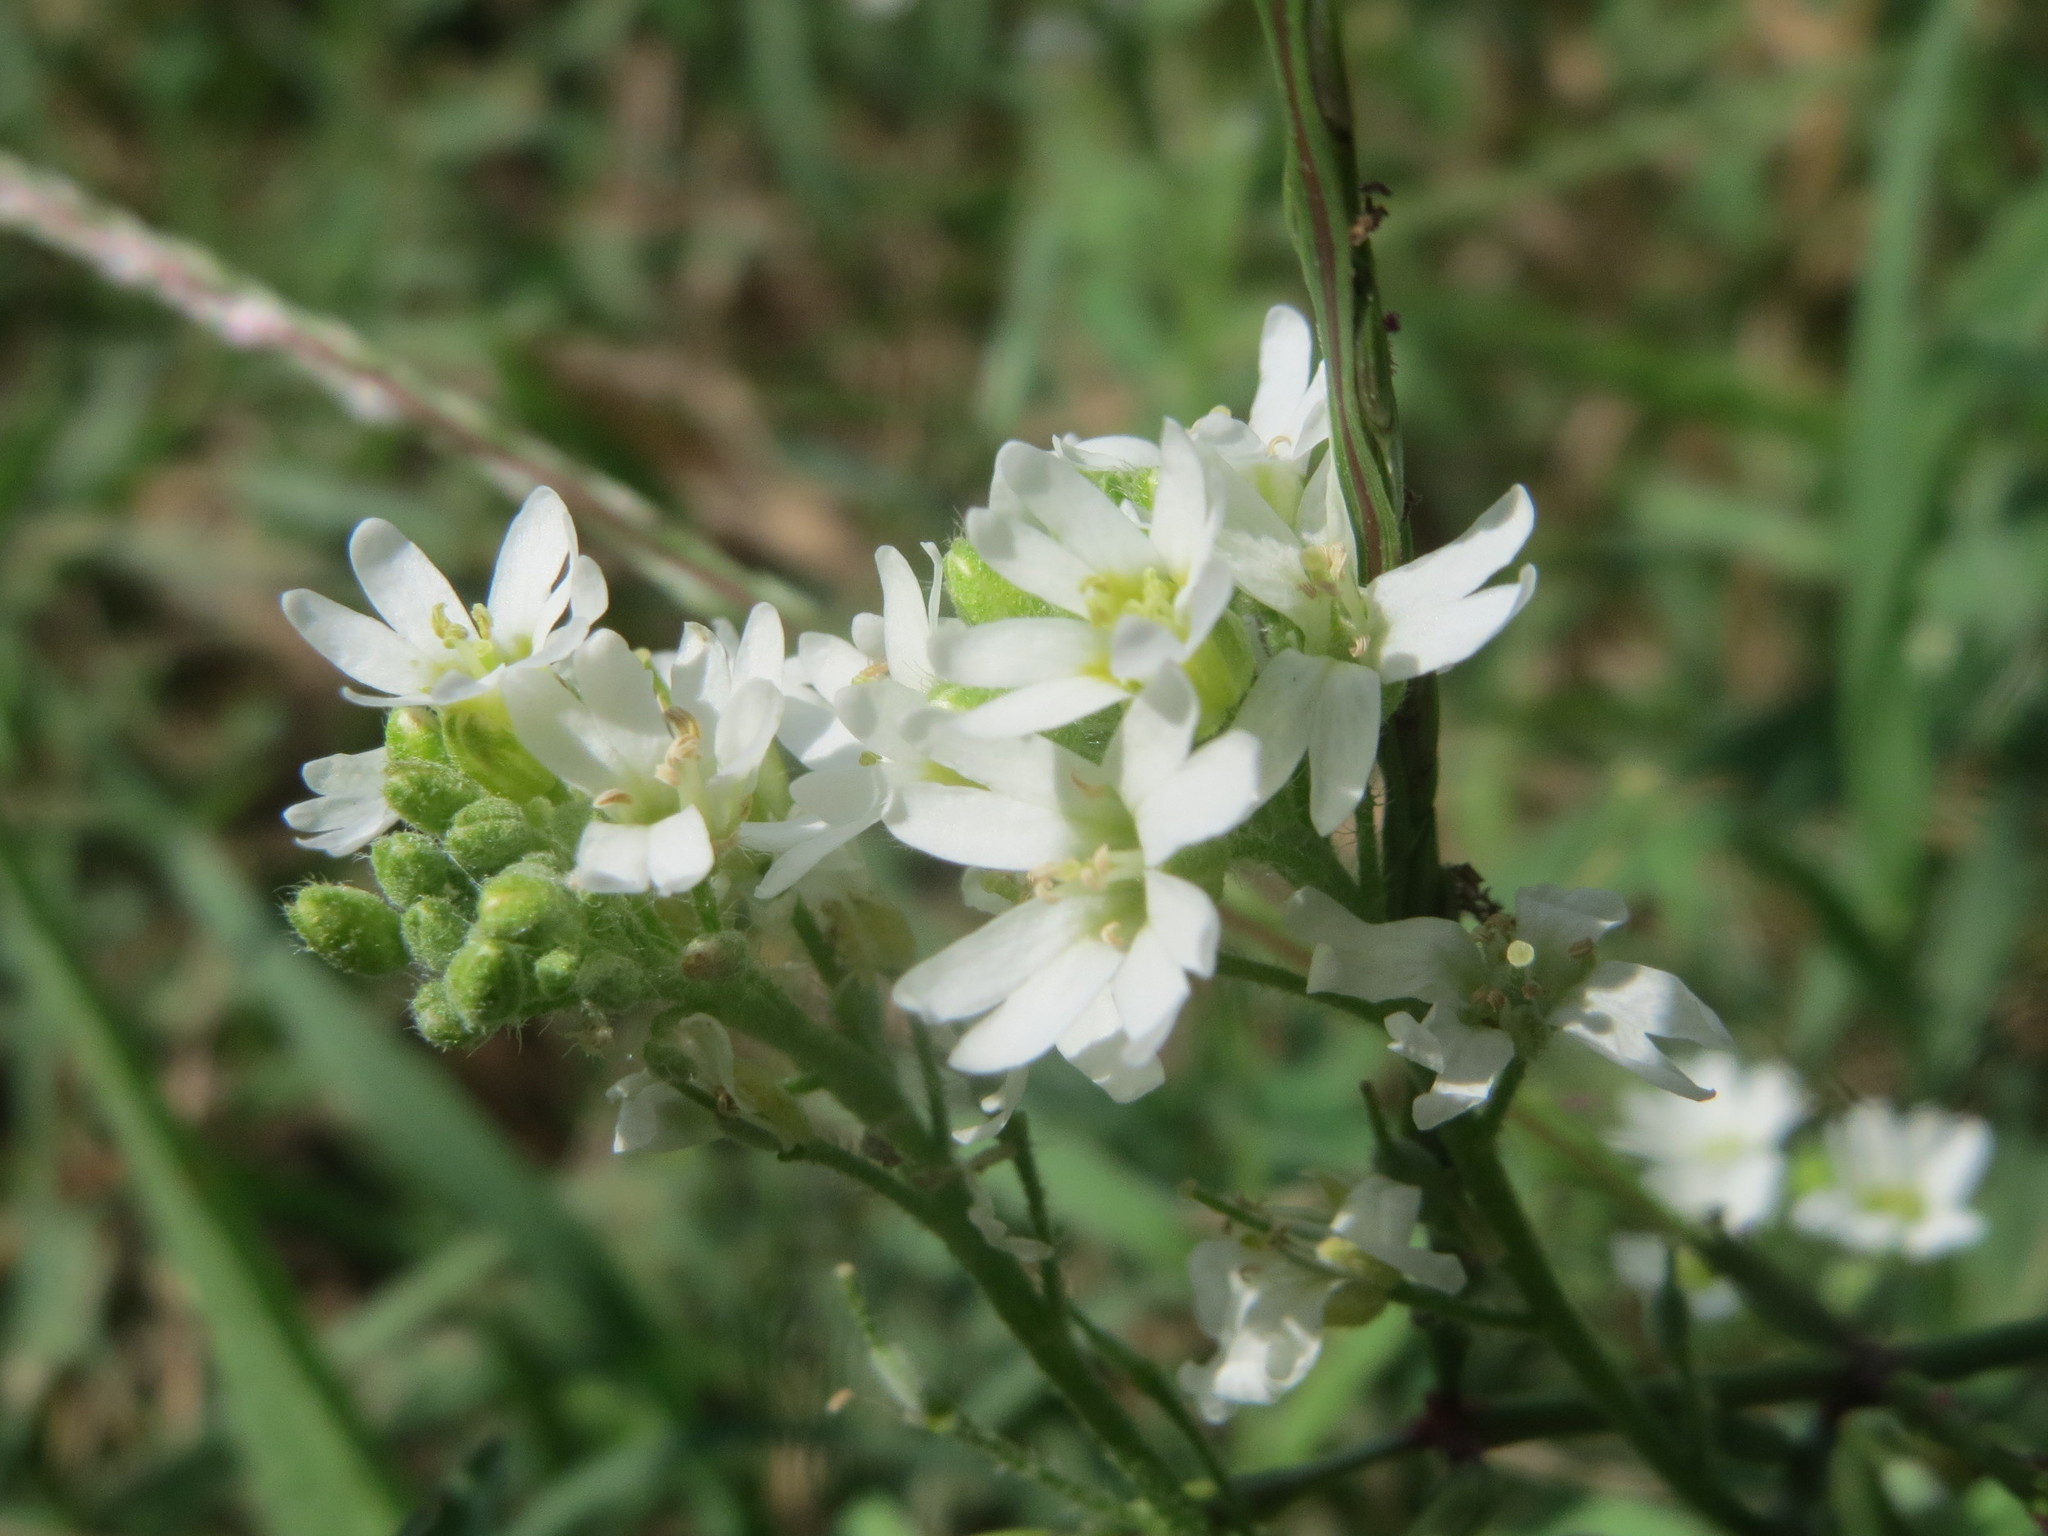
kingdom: Plantae
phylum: Tracheophyta
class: Magnoliopsida
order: Brassicales
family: Brassicaceae
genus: Berteroa
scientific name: Berteroa incana
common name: Hoary alison
